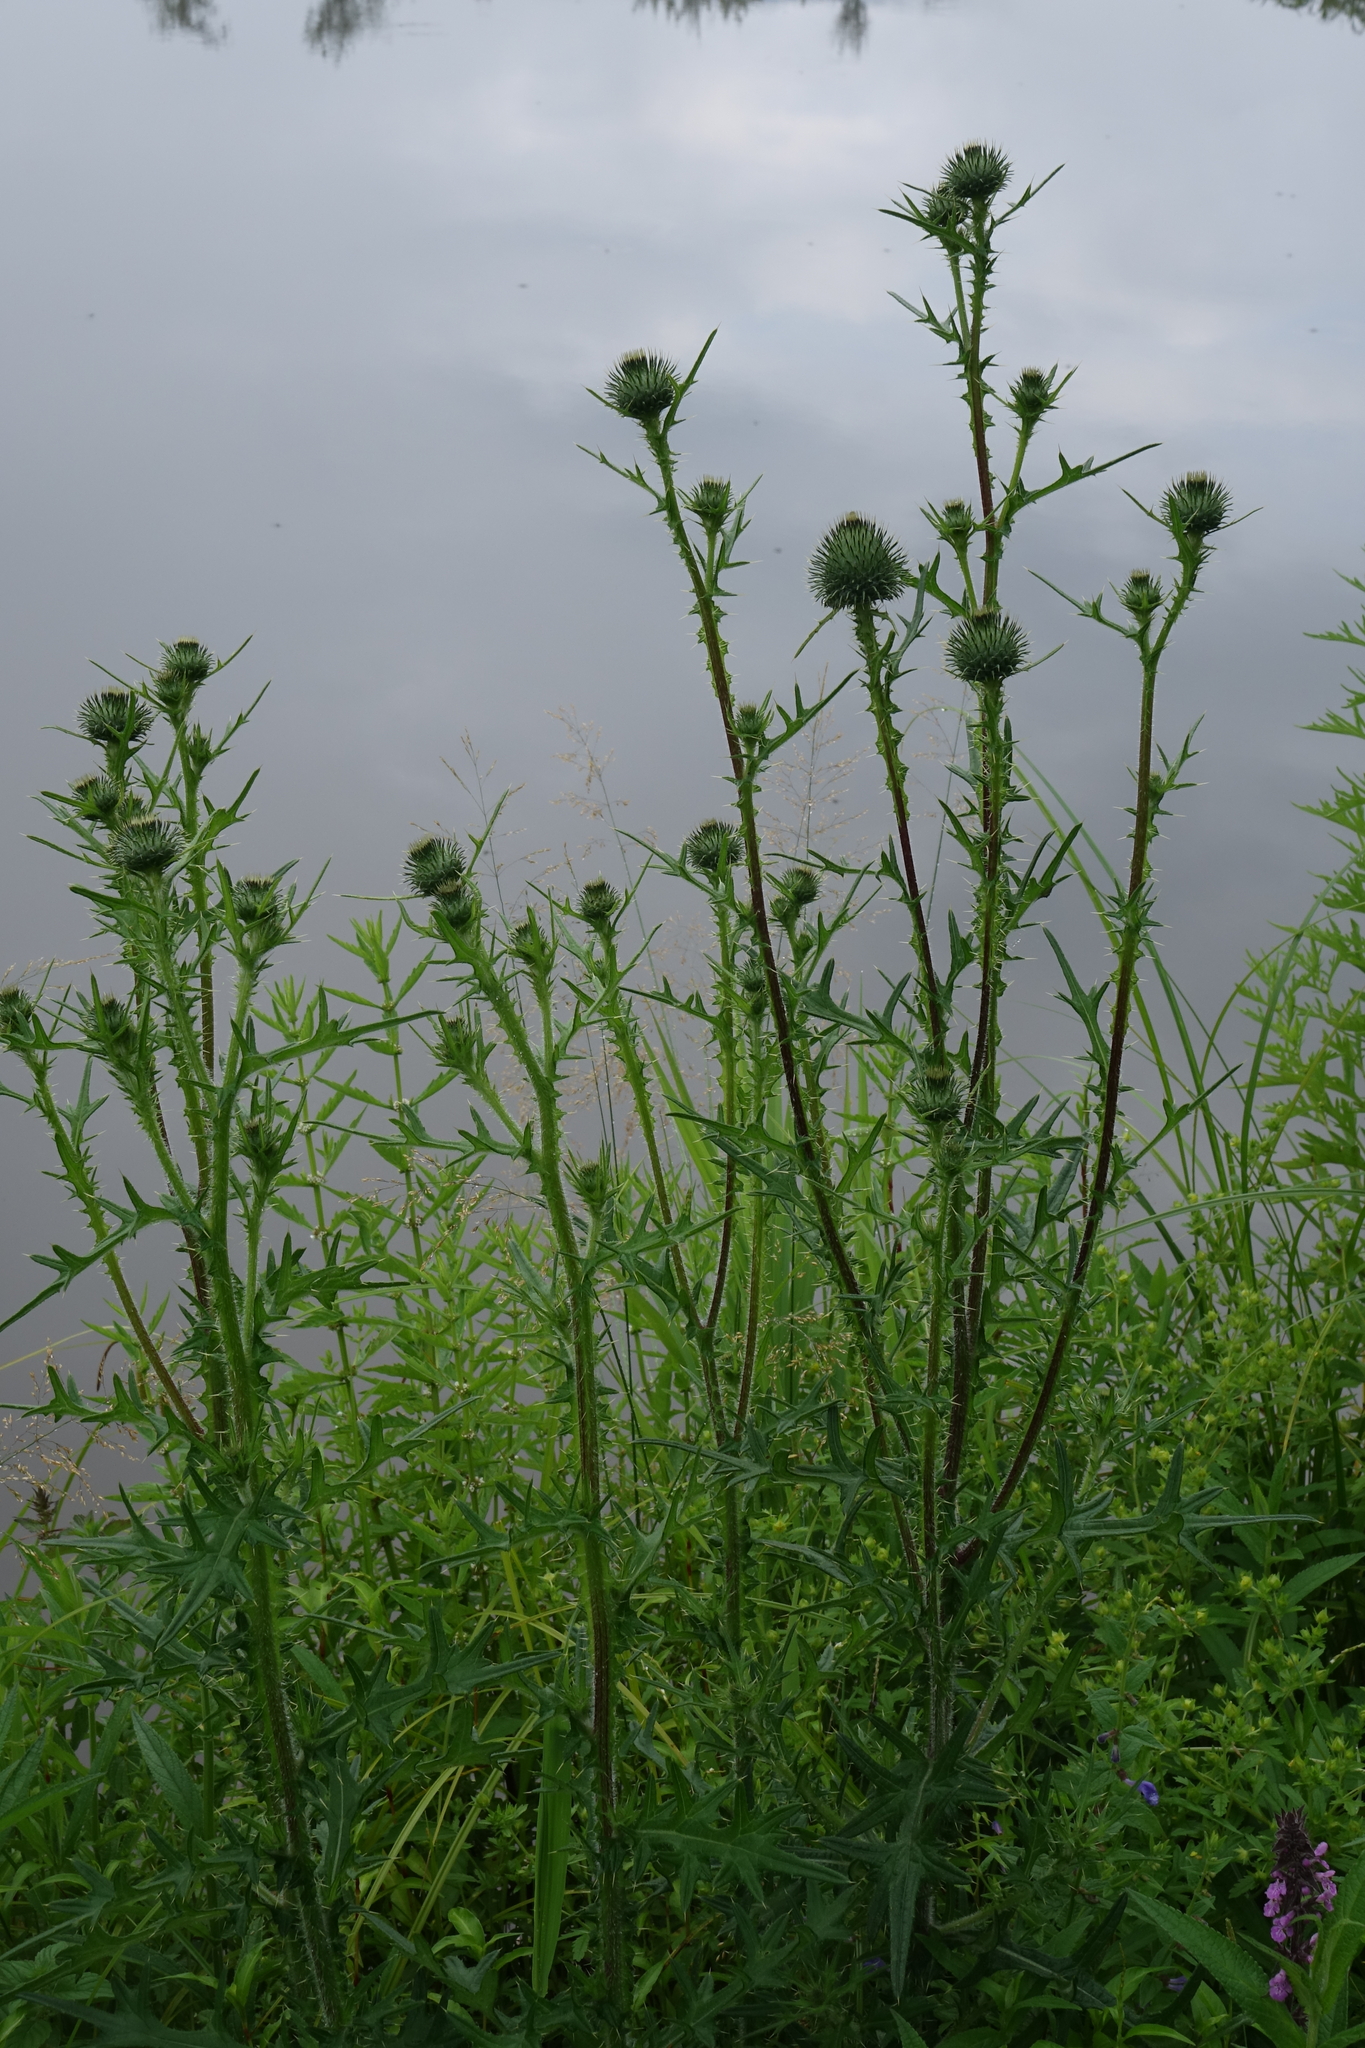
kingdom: Plantae
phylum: Tracheophyta
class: Magnoliopsida
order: Asterales
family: Asteraceae
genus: Cirsium
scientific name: Cirsium vulgare
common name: Bull thistle
